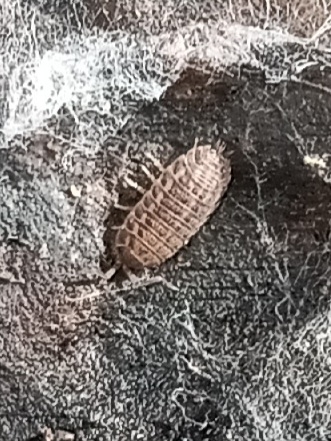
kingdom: Animalia
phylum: Arthropoda
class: Malacostraca
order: Isopoda
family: Trachelipodidae
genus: Trachelipus
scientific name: Trachelipus rathkii
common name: Isopod
